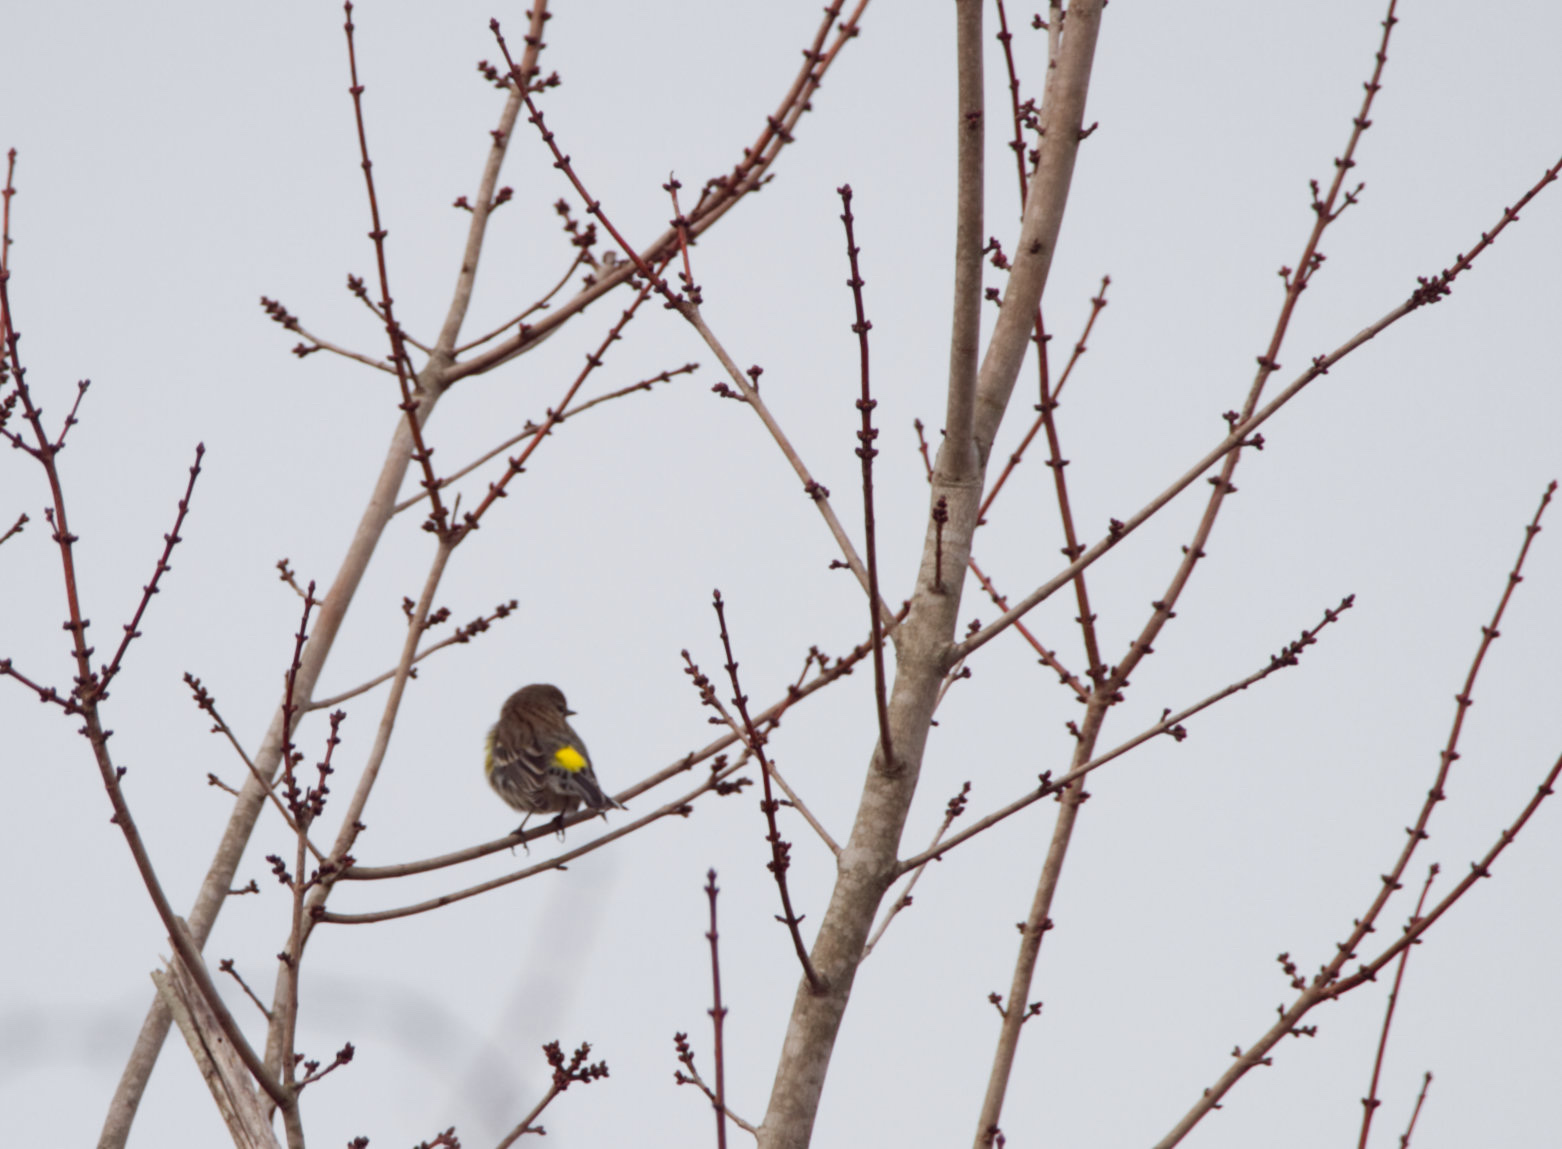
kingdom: Animalia
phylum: Chordata
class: Aves
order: Passeriformes
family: Parulidae
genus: Setophaga
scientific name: Setophaga coronata
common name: Myrtle warbler
